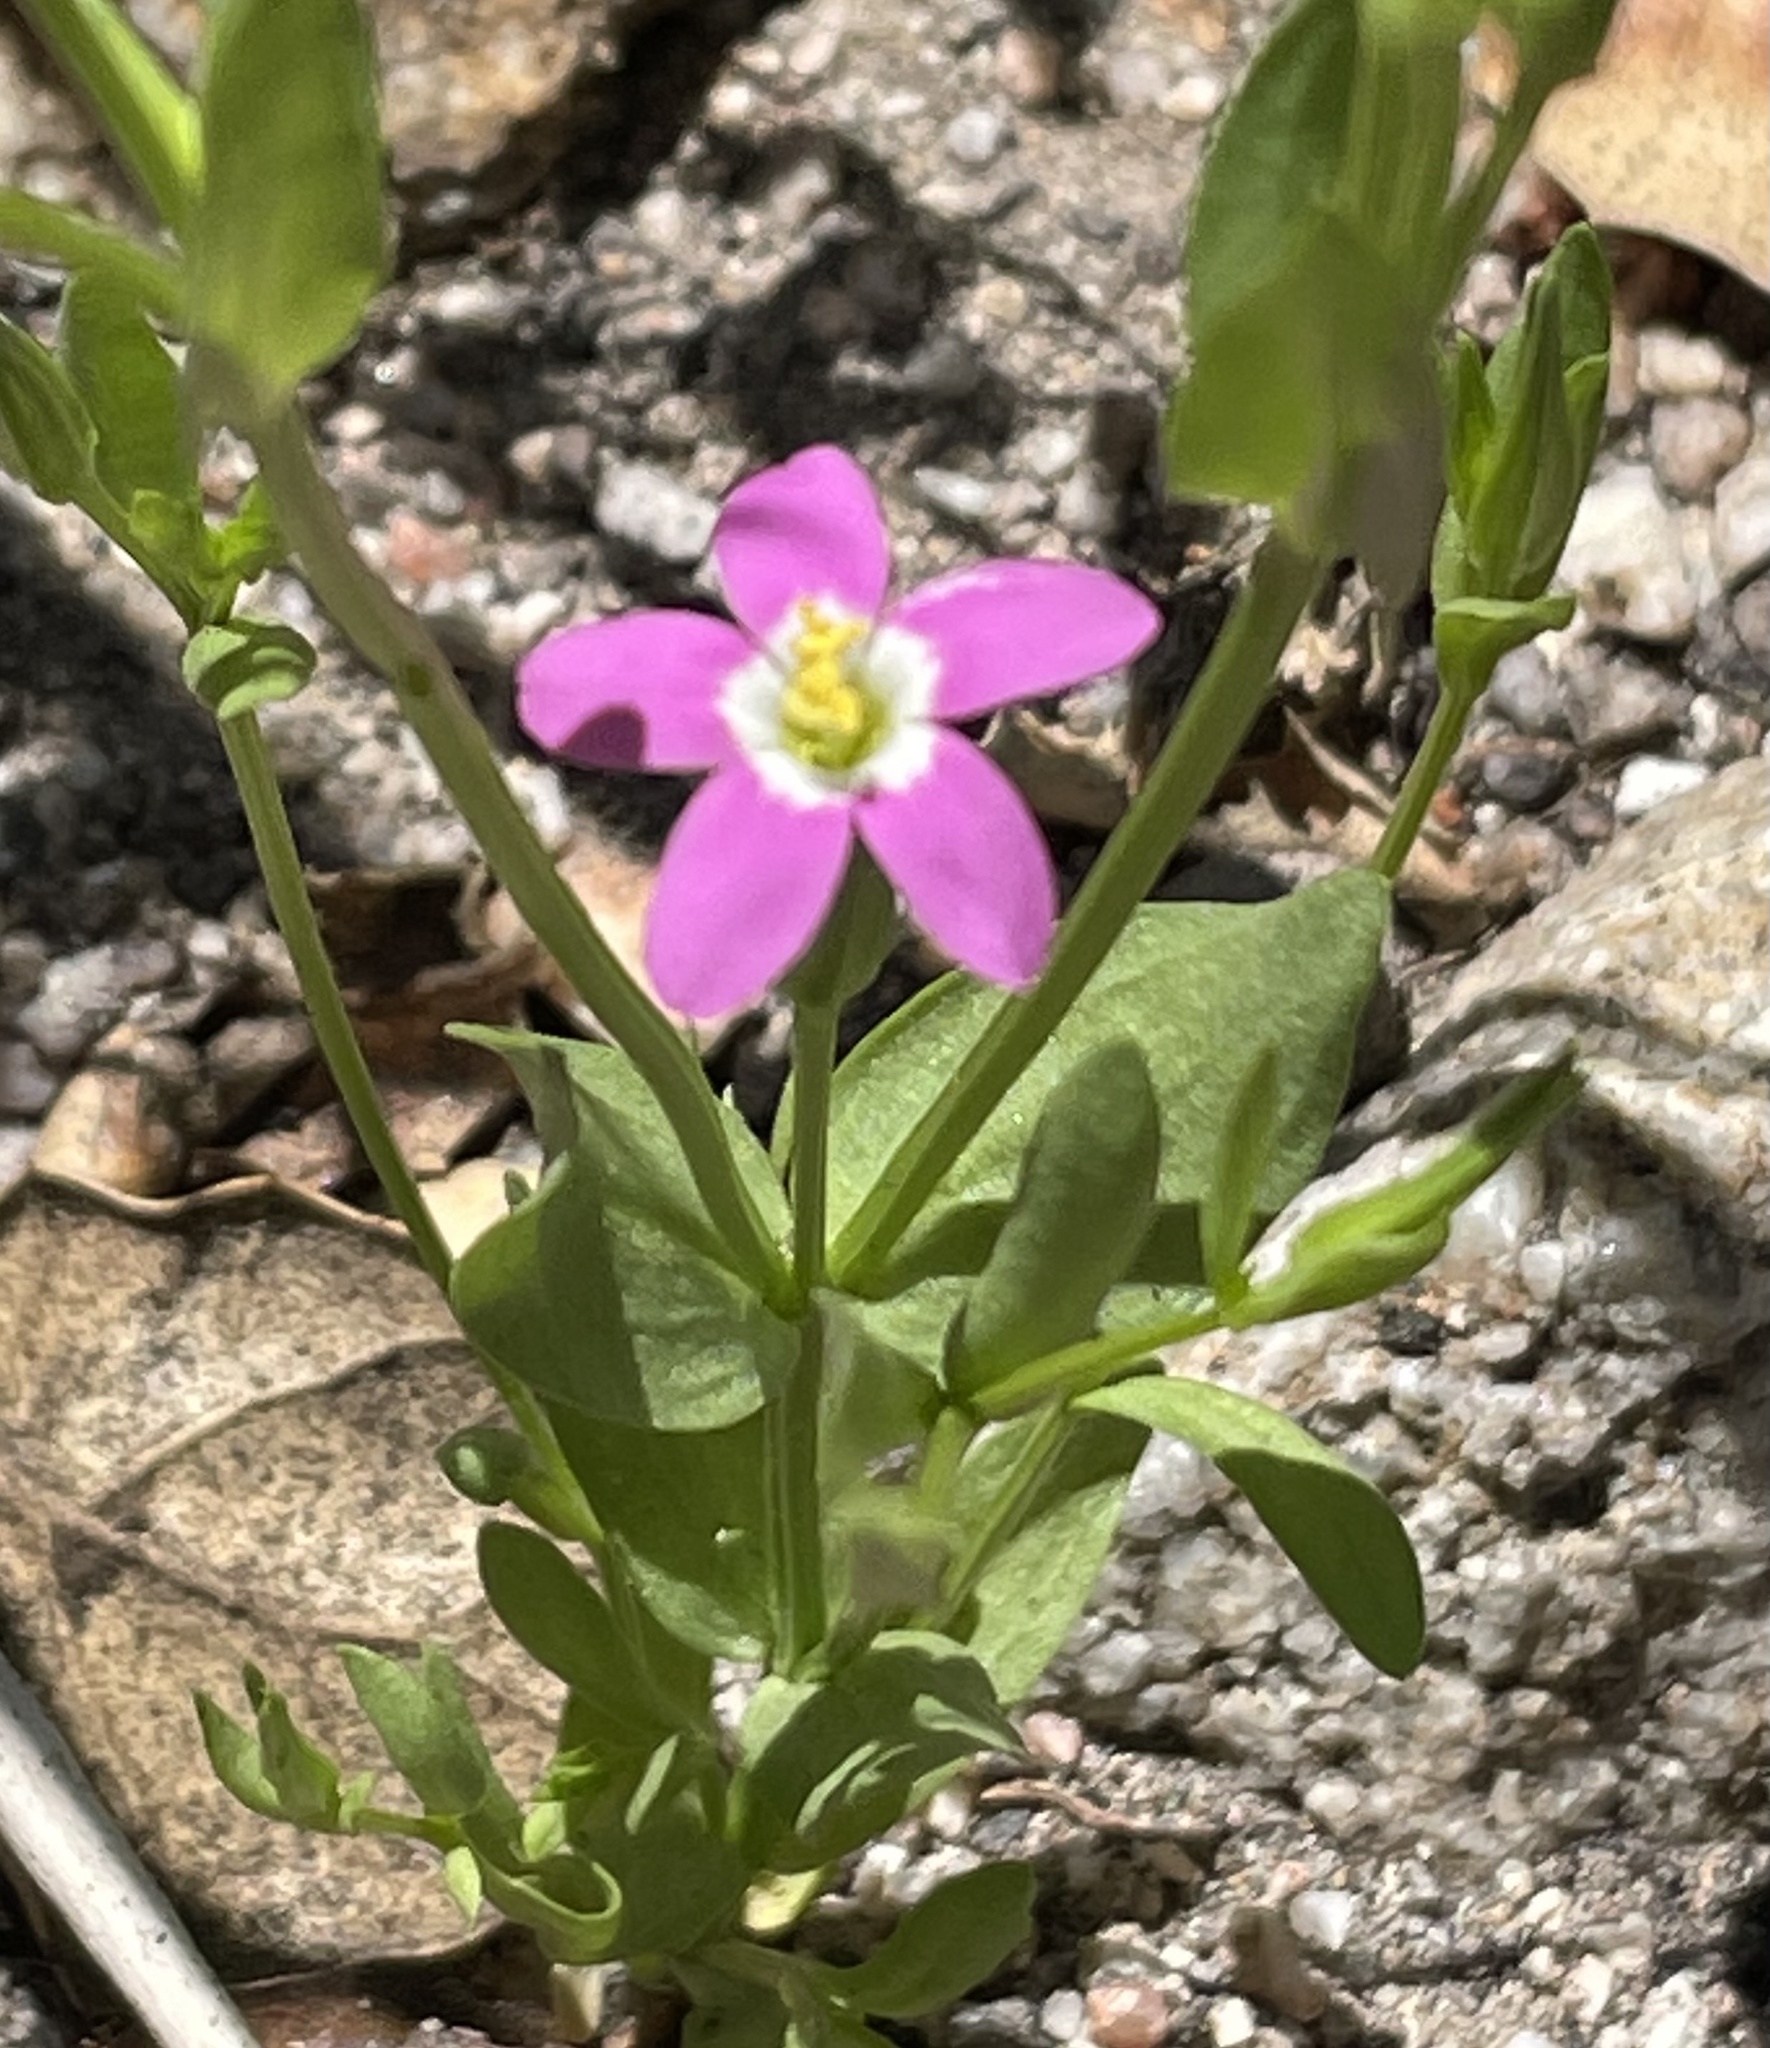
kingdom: Plantae
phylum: Tracheophyta
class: Magnoliopsida
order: Gentianales
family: Gentianaceae
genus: Zeltnera
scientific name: Zeltnera davyi
